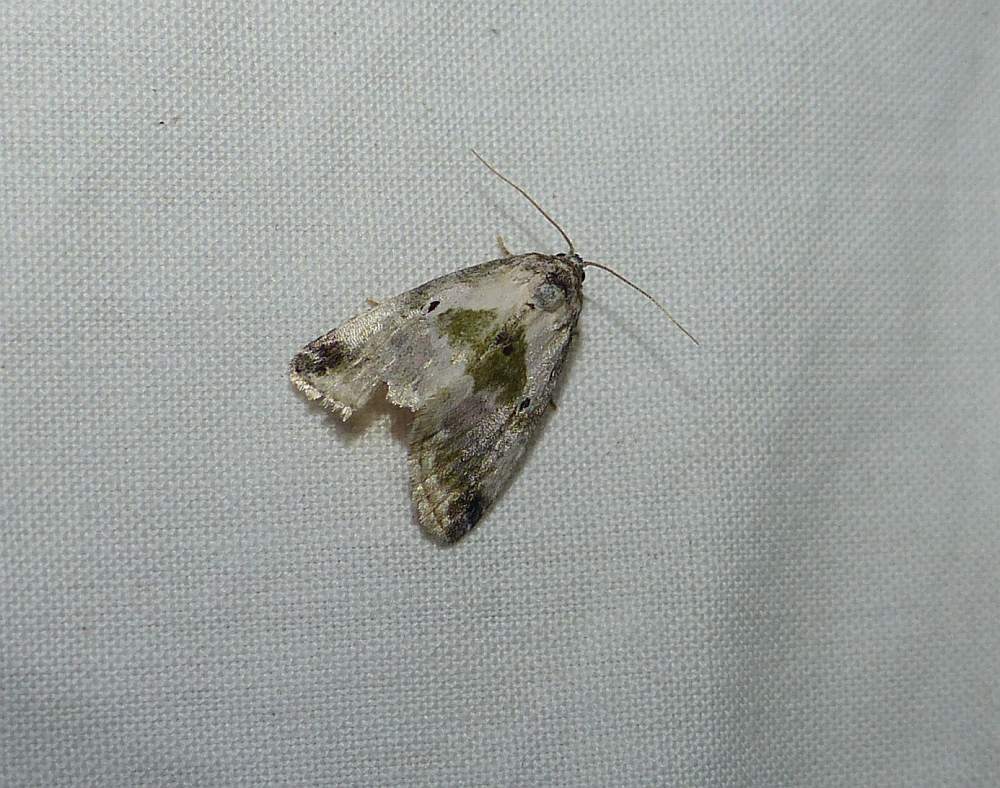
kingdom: Animalia
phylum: Arthropoda
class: Insecta
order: Lepidoptera
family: Noctuidae
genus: Maliattha
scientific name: Maliattha synochitis
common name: Black-dotted glyph
